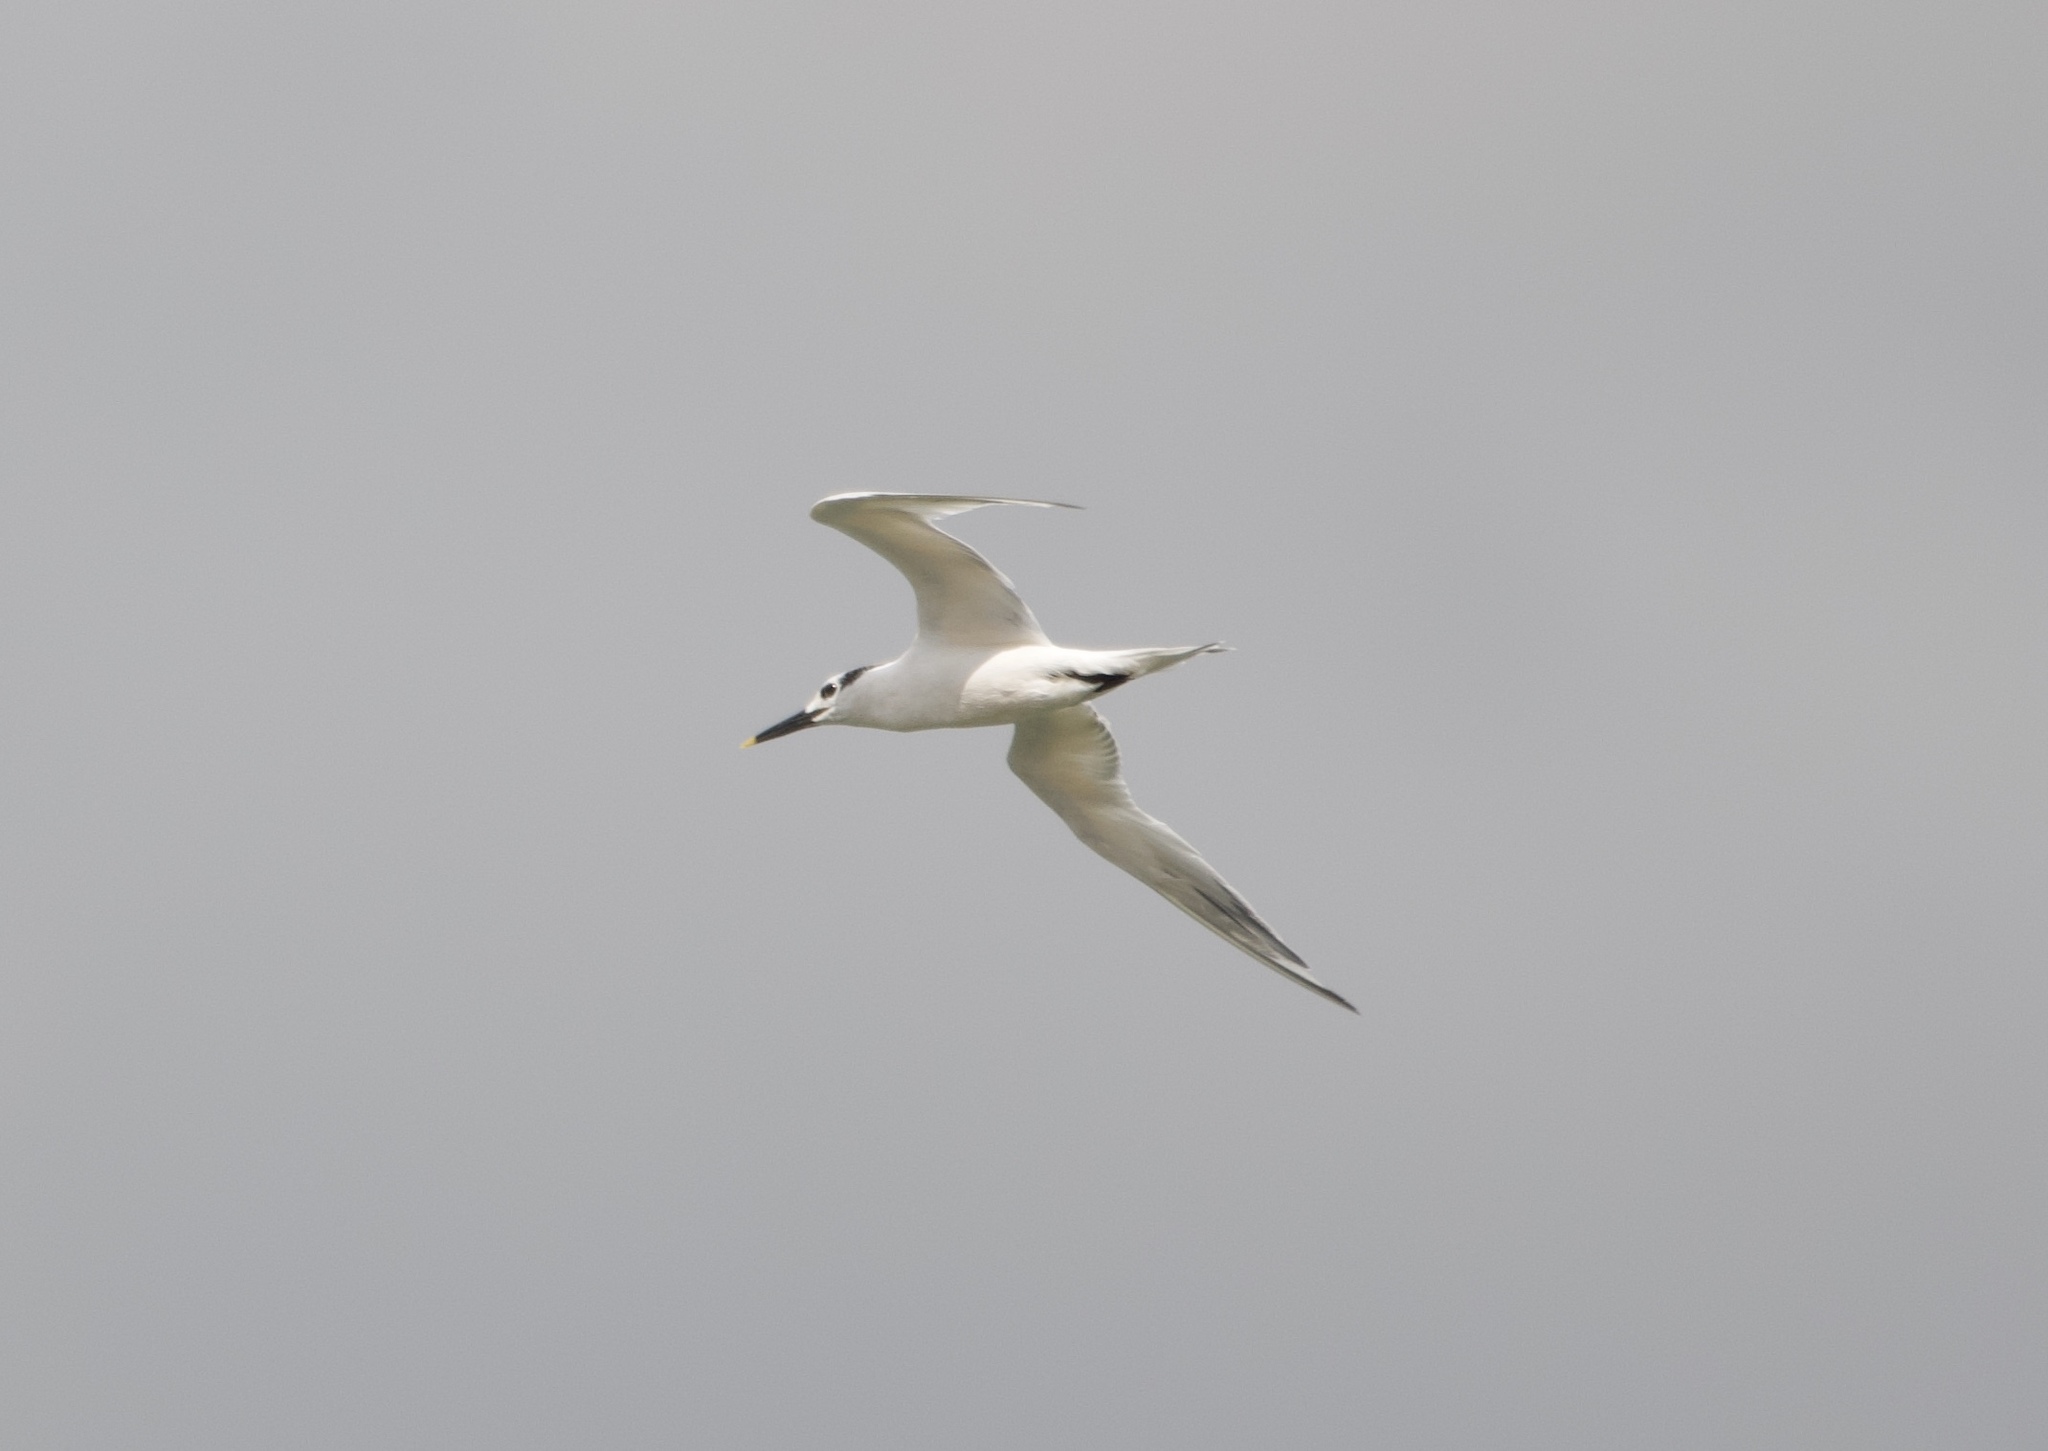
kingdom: Animalia
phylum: Chordata
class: Aves
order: Charadriiformes
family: Laridae
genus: Thalasseus
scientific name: Thalasseus sandvicensis
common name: Sandwich tern
